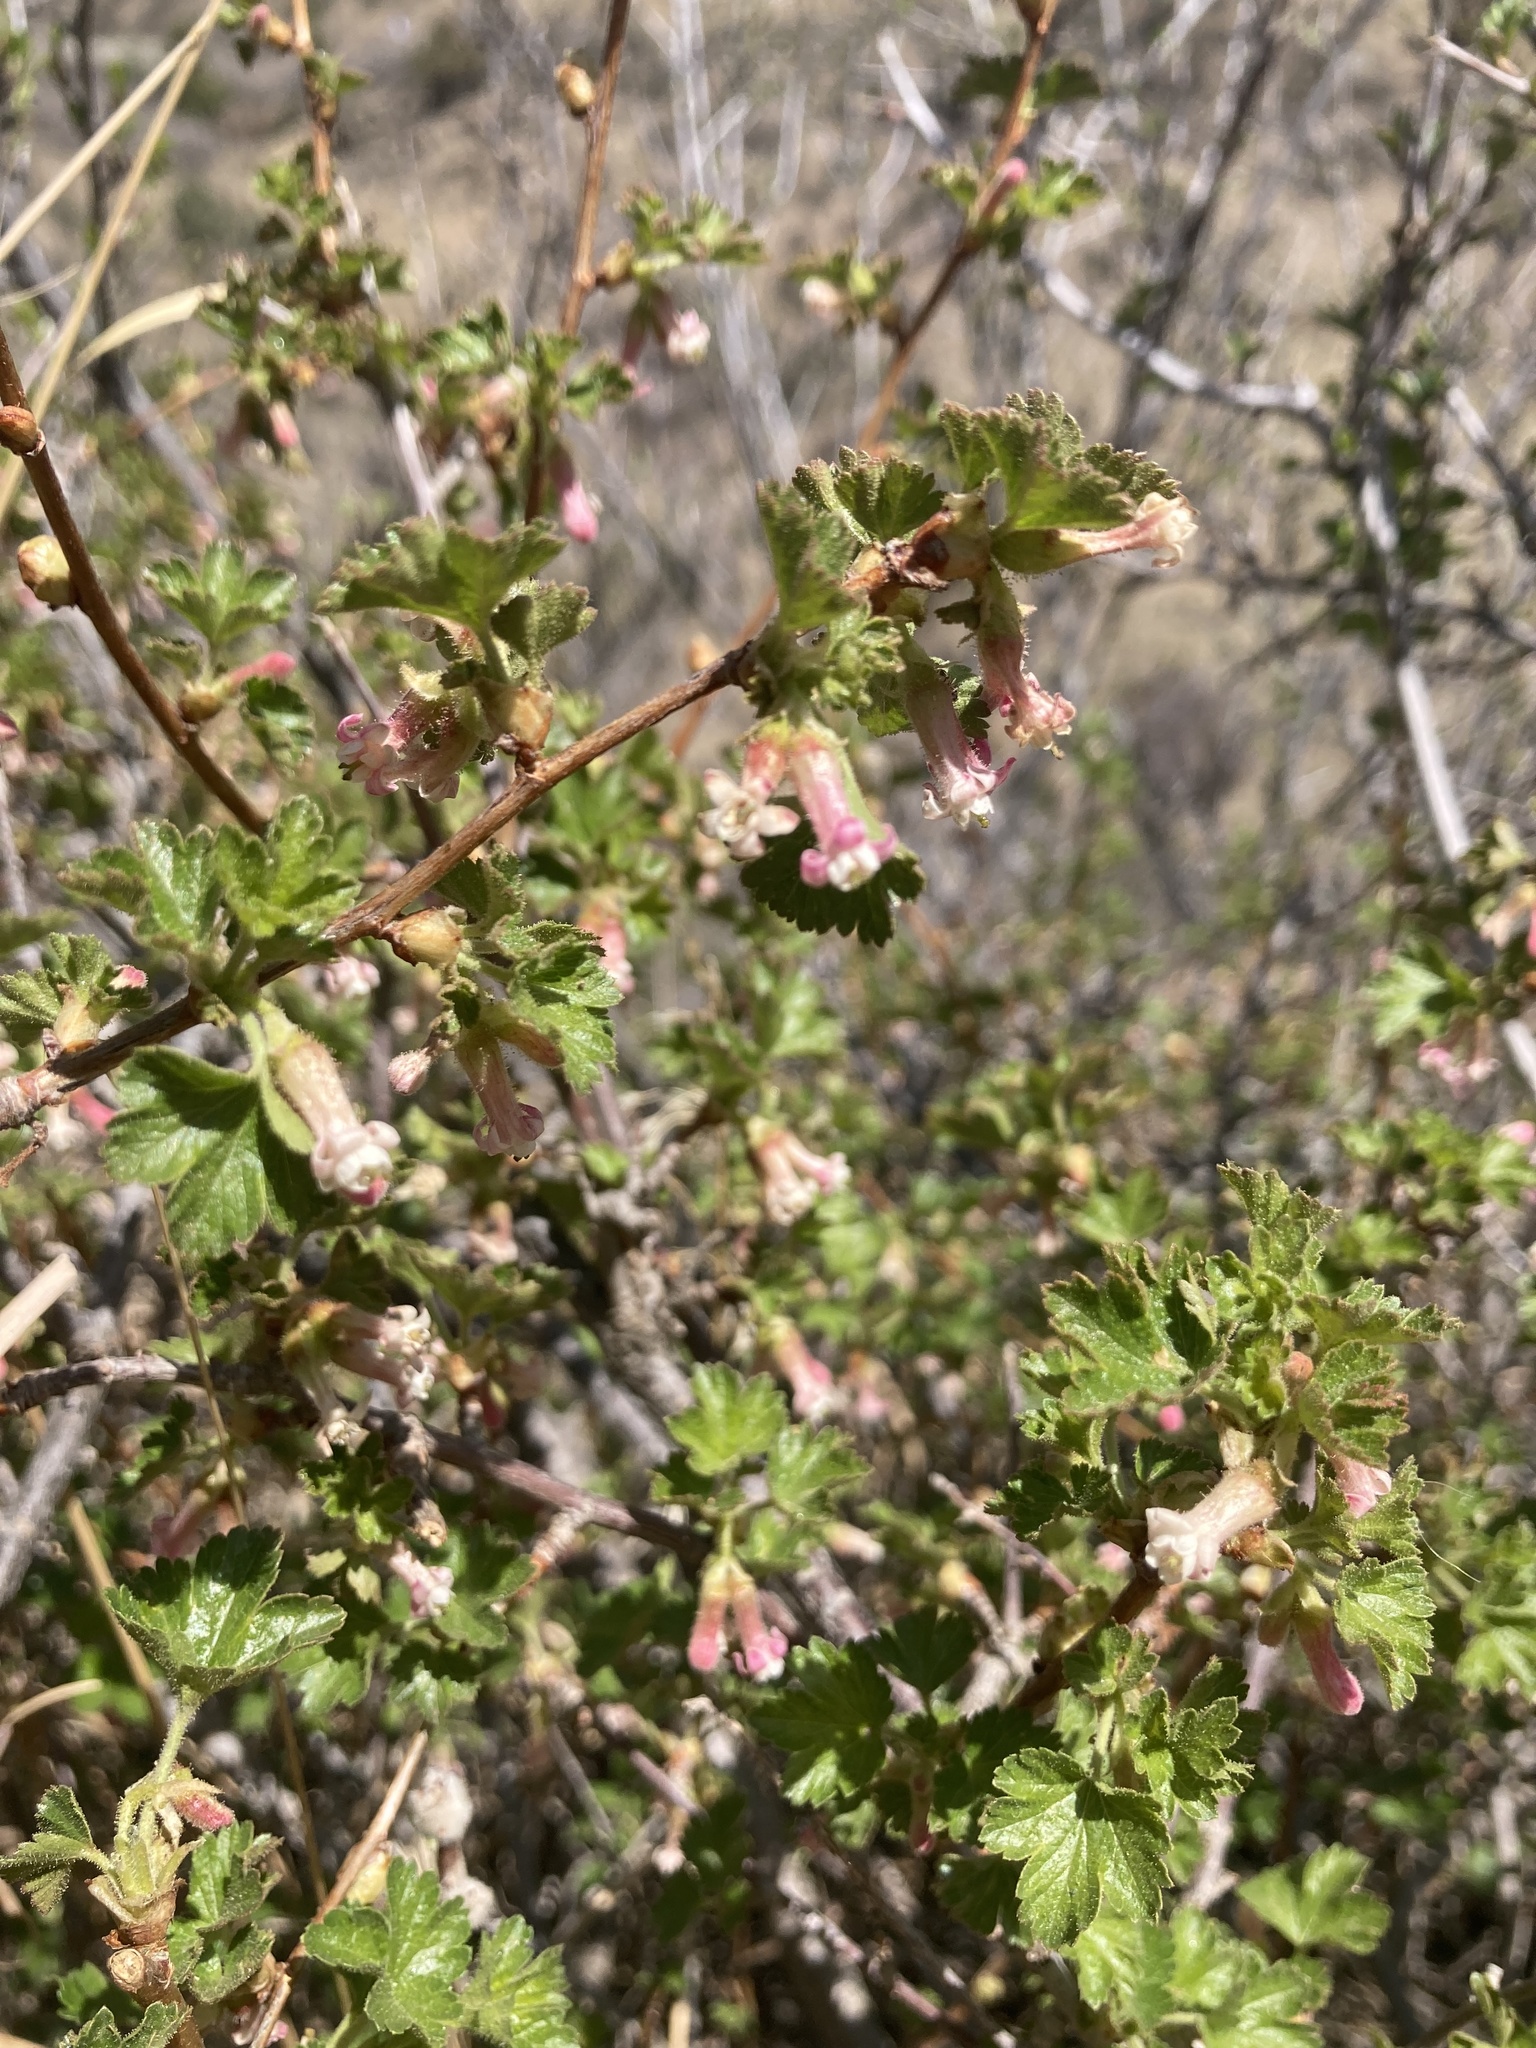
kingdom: Plantae
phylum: Tracheophyta
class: Magnoliopsida
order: Saxifragales
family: Grossulariaceae
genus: Ribes
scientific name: Ribes cereum
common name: Wax currant
